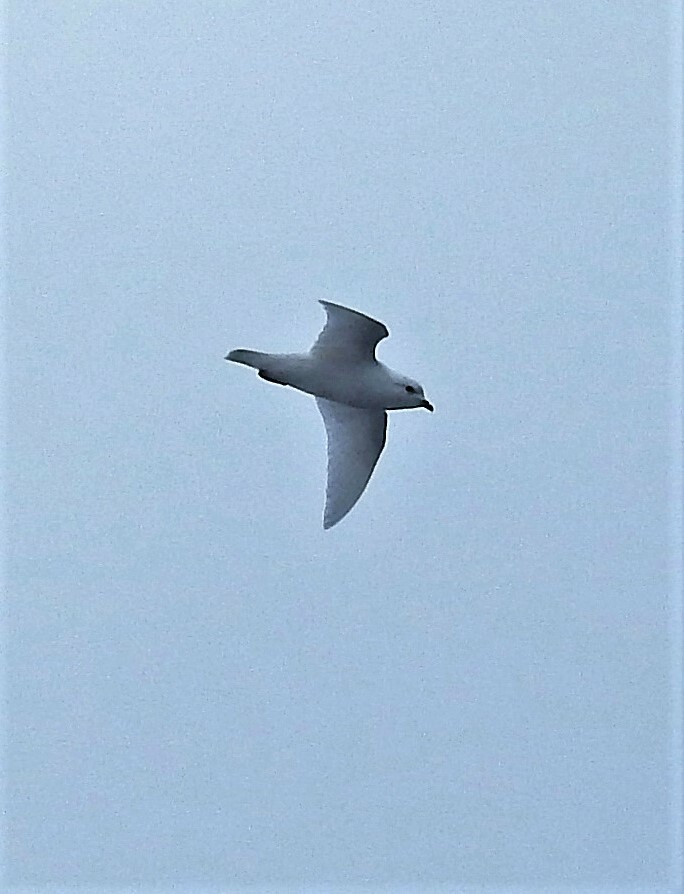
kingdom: Animalia
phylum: Chordata
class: Aves
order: Procellariiformes
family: Procellariidae
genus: Pagodroma
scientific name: Pagodroma nivea
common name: Snow petrel
